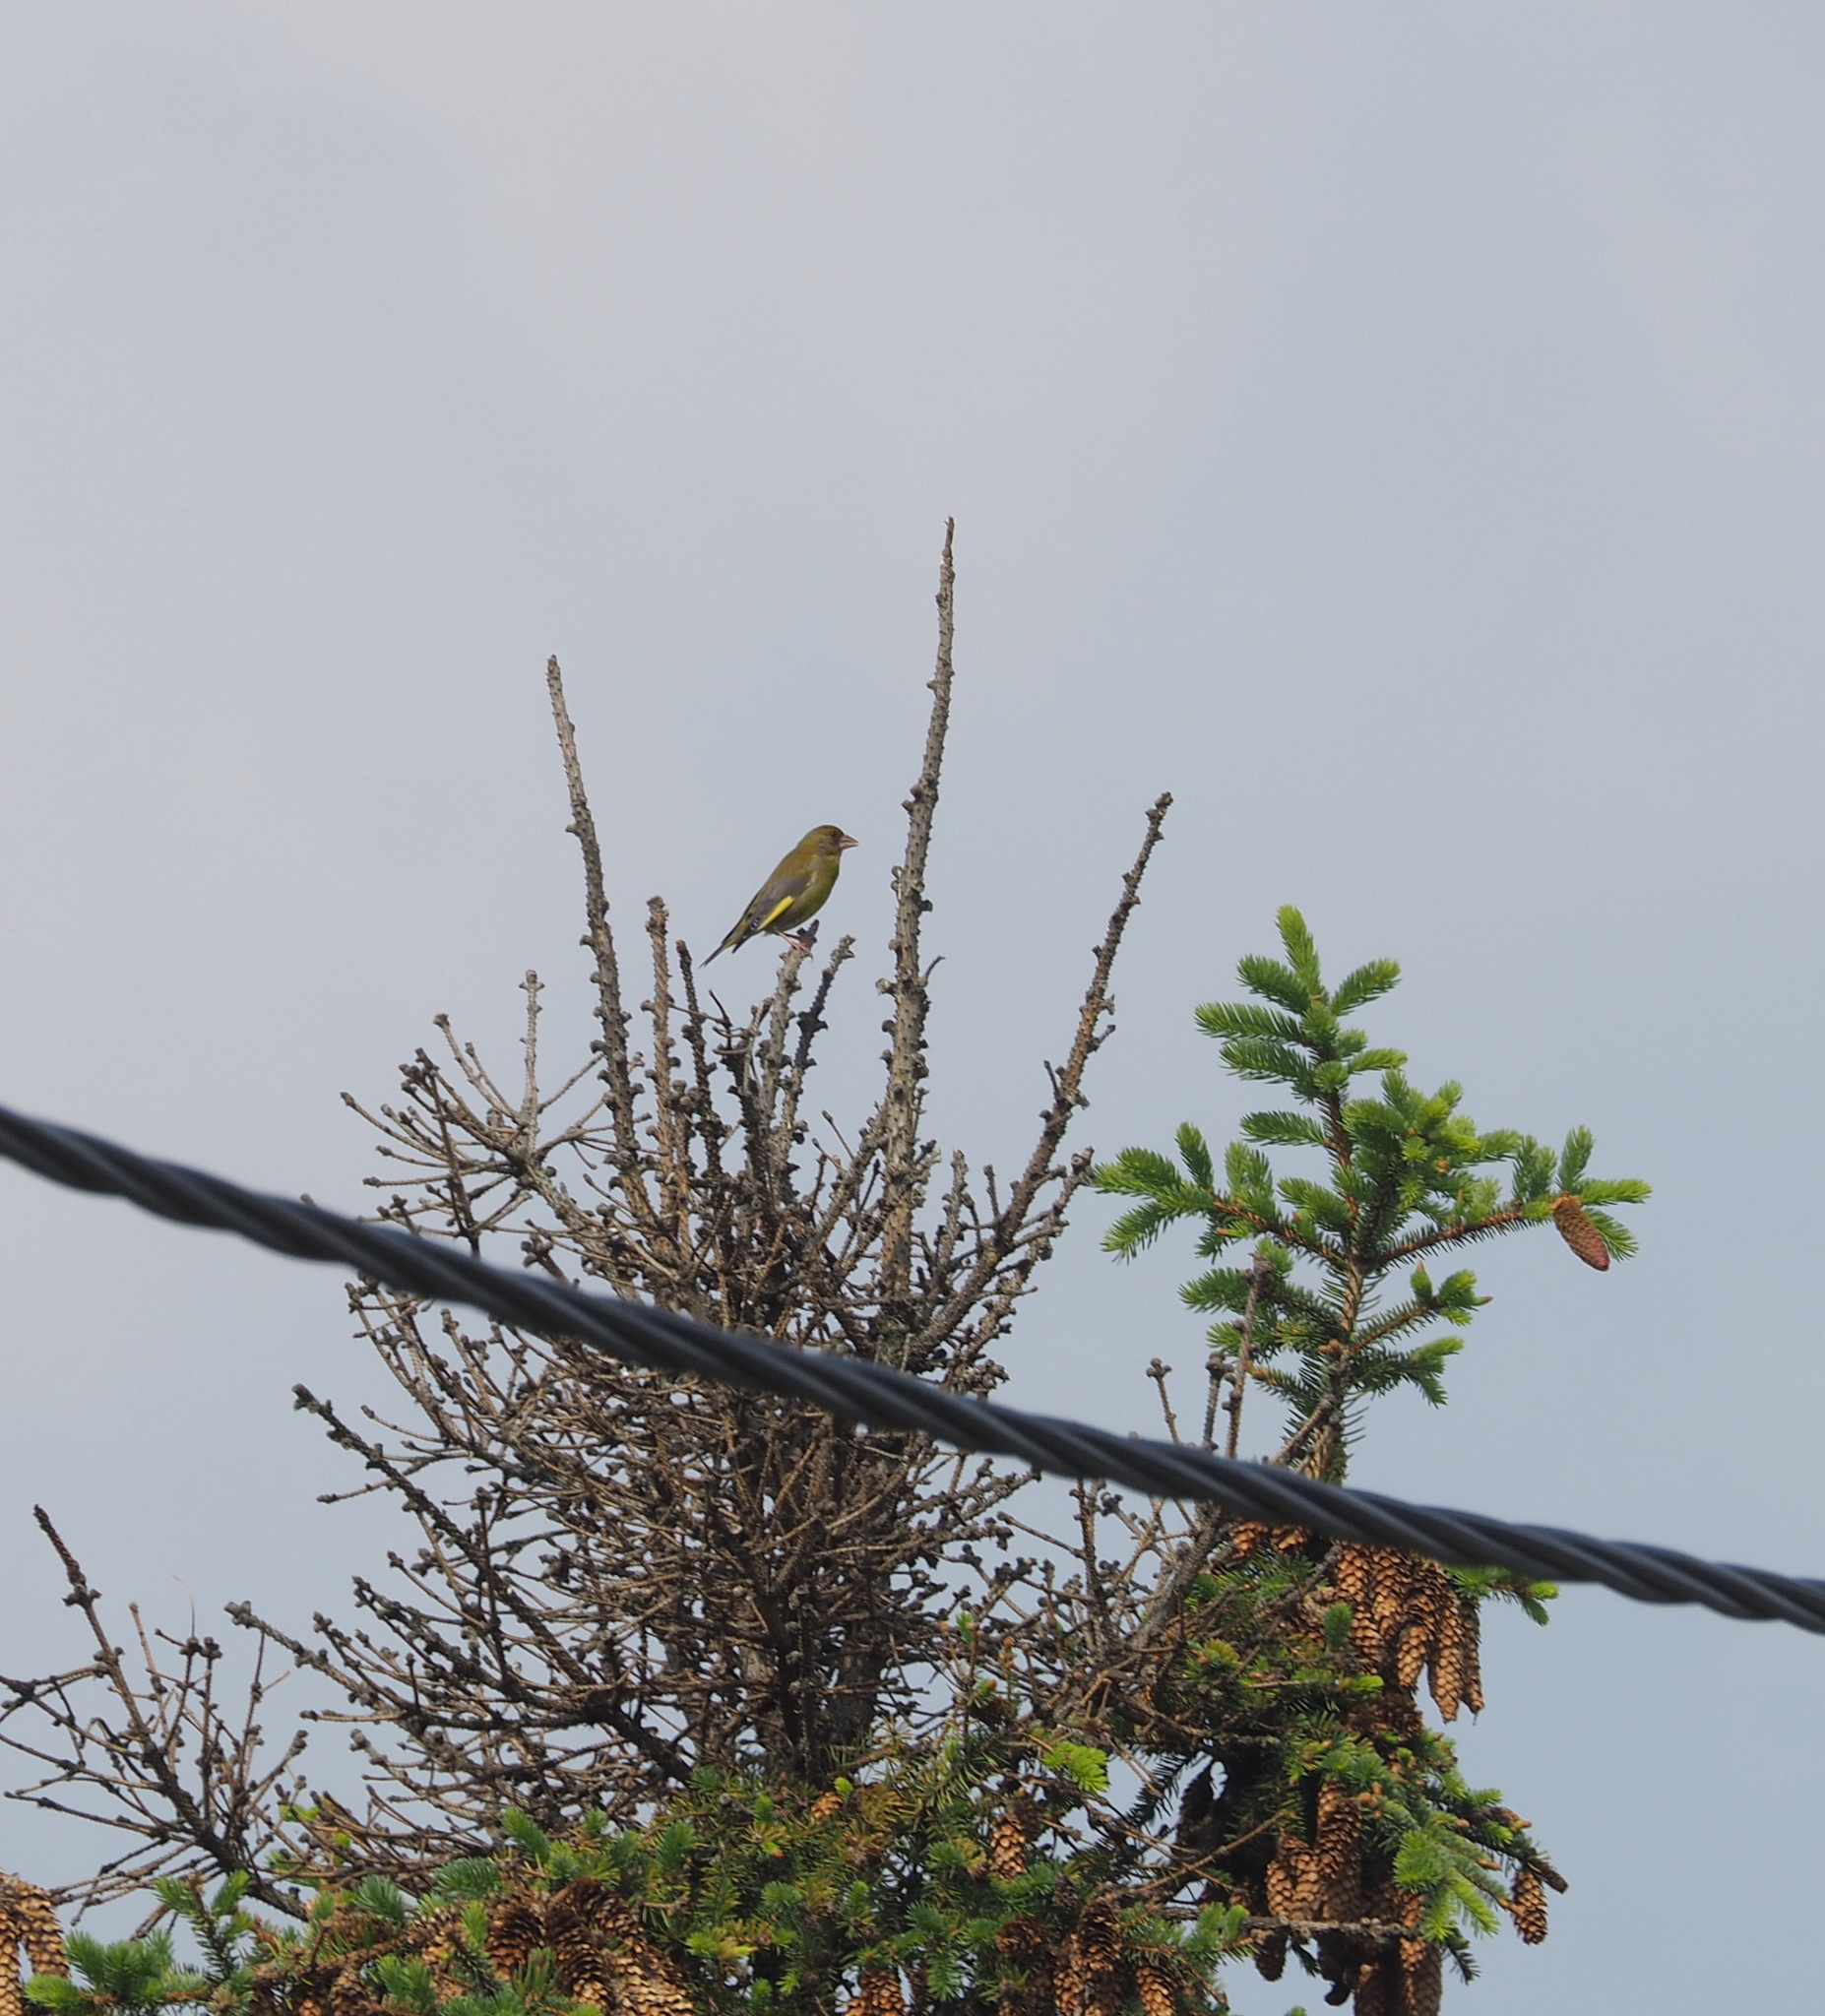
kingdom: Plantae
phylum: Tracheophyta
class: Liliopsida
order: Poales
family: Poaceae
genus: Chloris
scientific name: Chloris chloris
